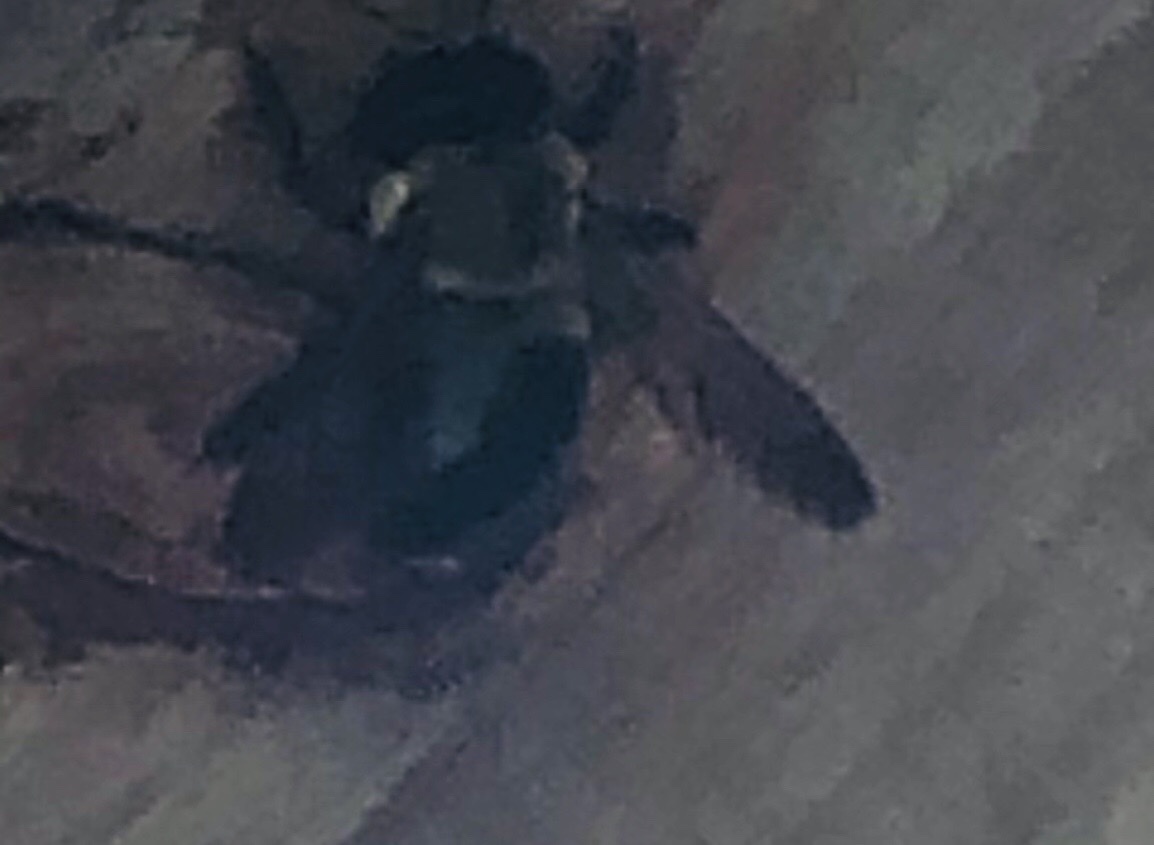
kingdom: Animalia
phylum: Arthropoda
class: Insecta
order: Hymenoptera
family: Apidae
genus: Xylocopa
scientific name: Xylocopa virginica
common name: Carpenter bee
